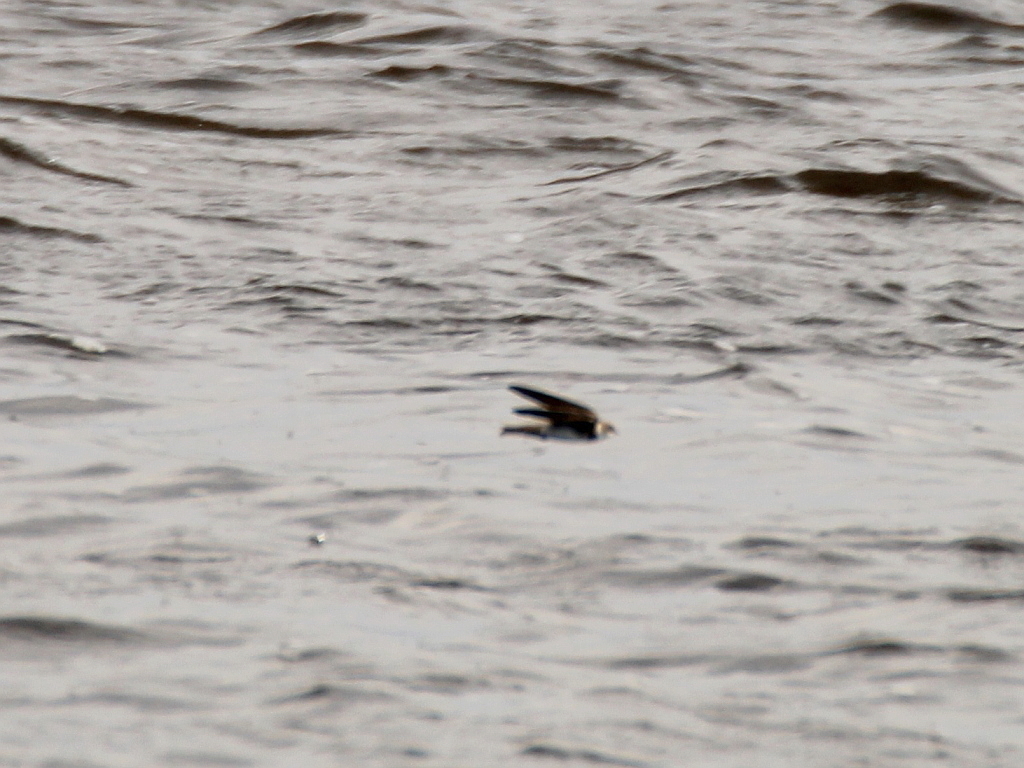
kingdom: Animalia
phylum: Chordata
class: Aves
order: Passeriformes
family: Hirundinidae
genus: Riparia
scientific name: Riparia riparia
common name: Sand martin
